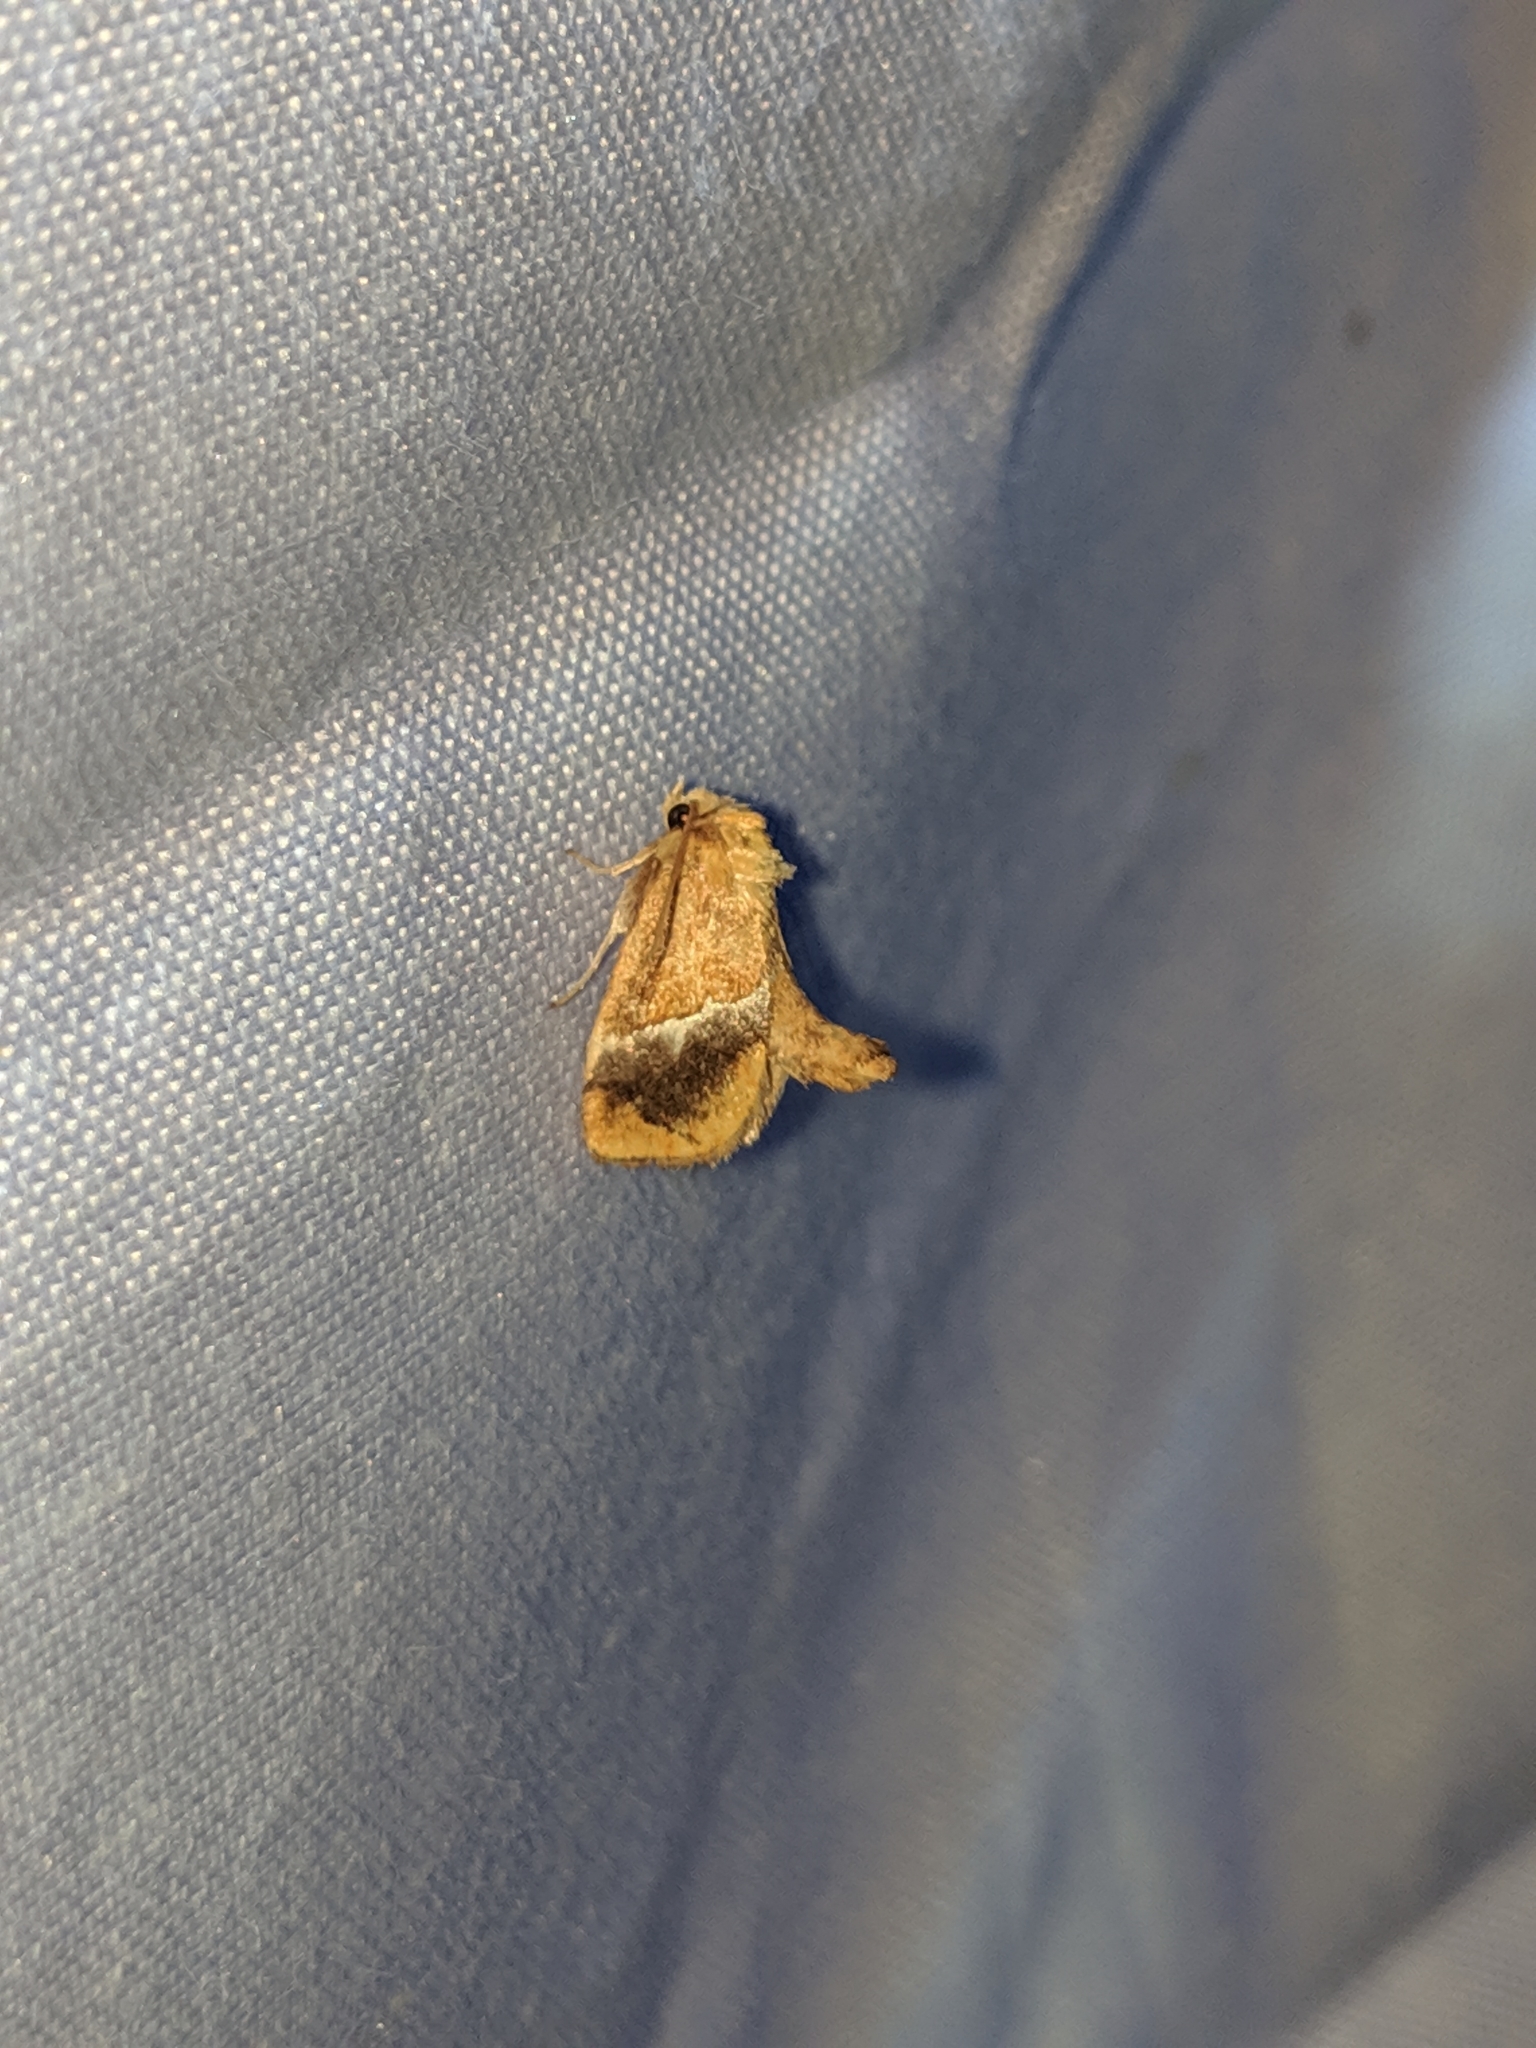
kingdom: Animalia
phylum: Arthropoda
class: Insecta
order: Lepidoptera
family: Limacodidae
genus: Lithacodes
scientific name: Lithacodes fasciola
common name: Yellow-shouldered slug moth
